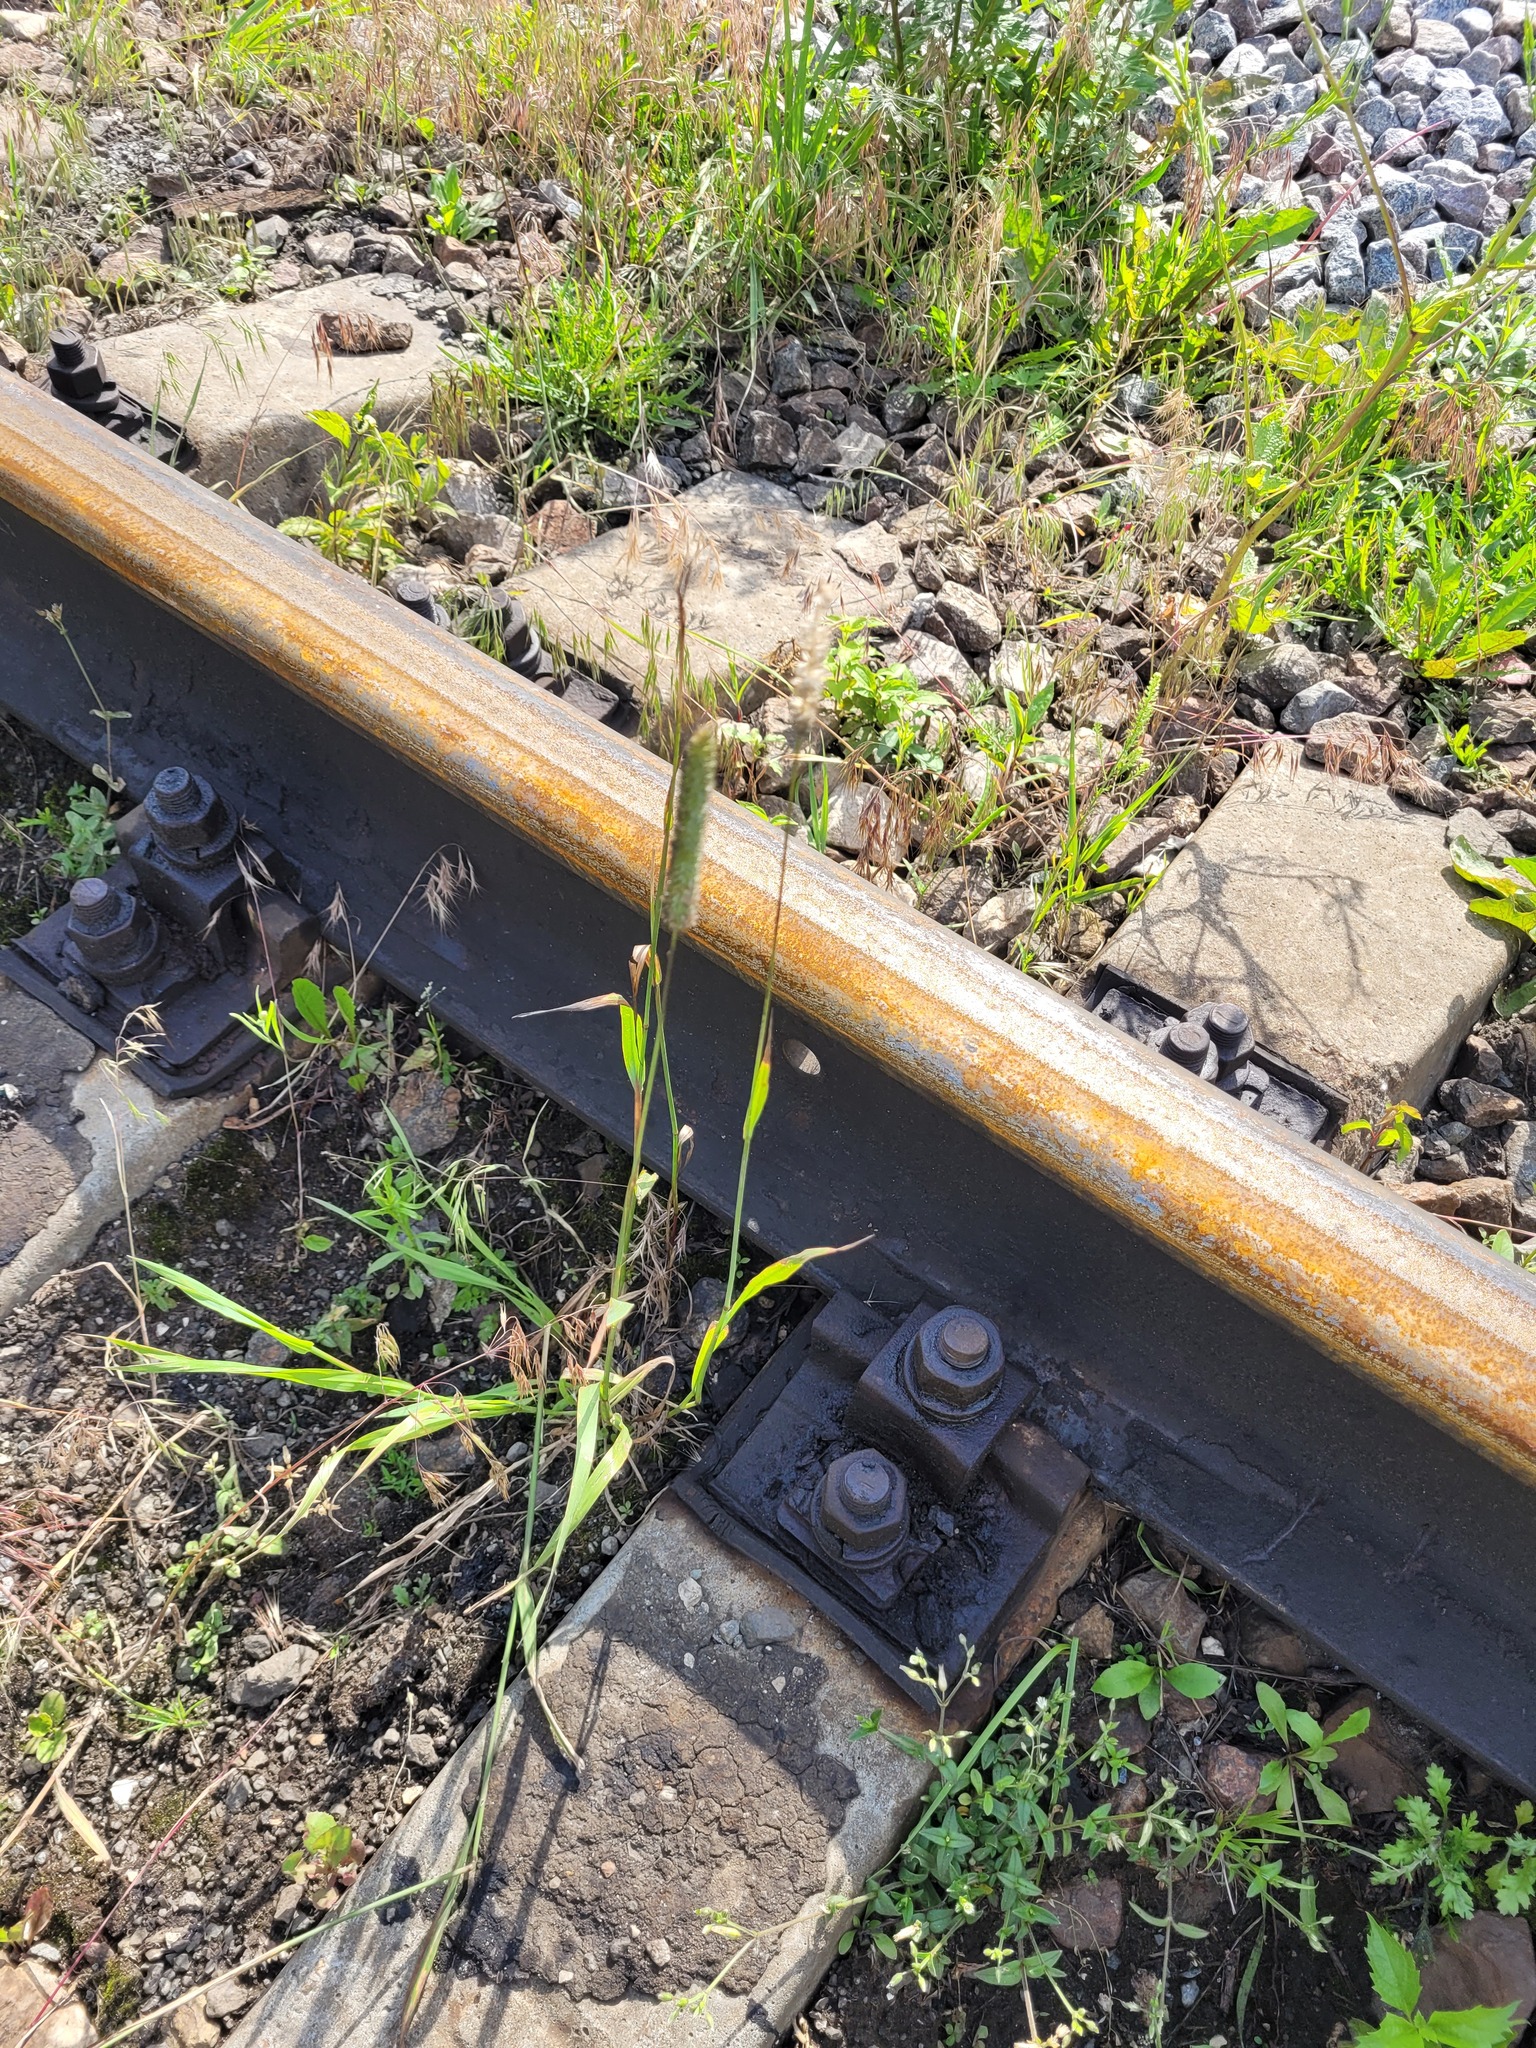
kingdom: Plantae
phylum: Tracheophyta
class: Liliopsida
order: Poales
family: Poaceae
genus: Phleum
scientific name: Phleum pratense
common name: Timothy grass
